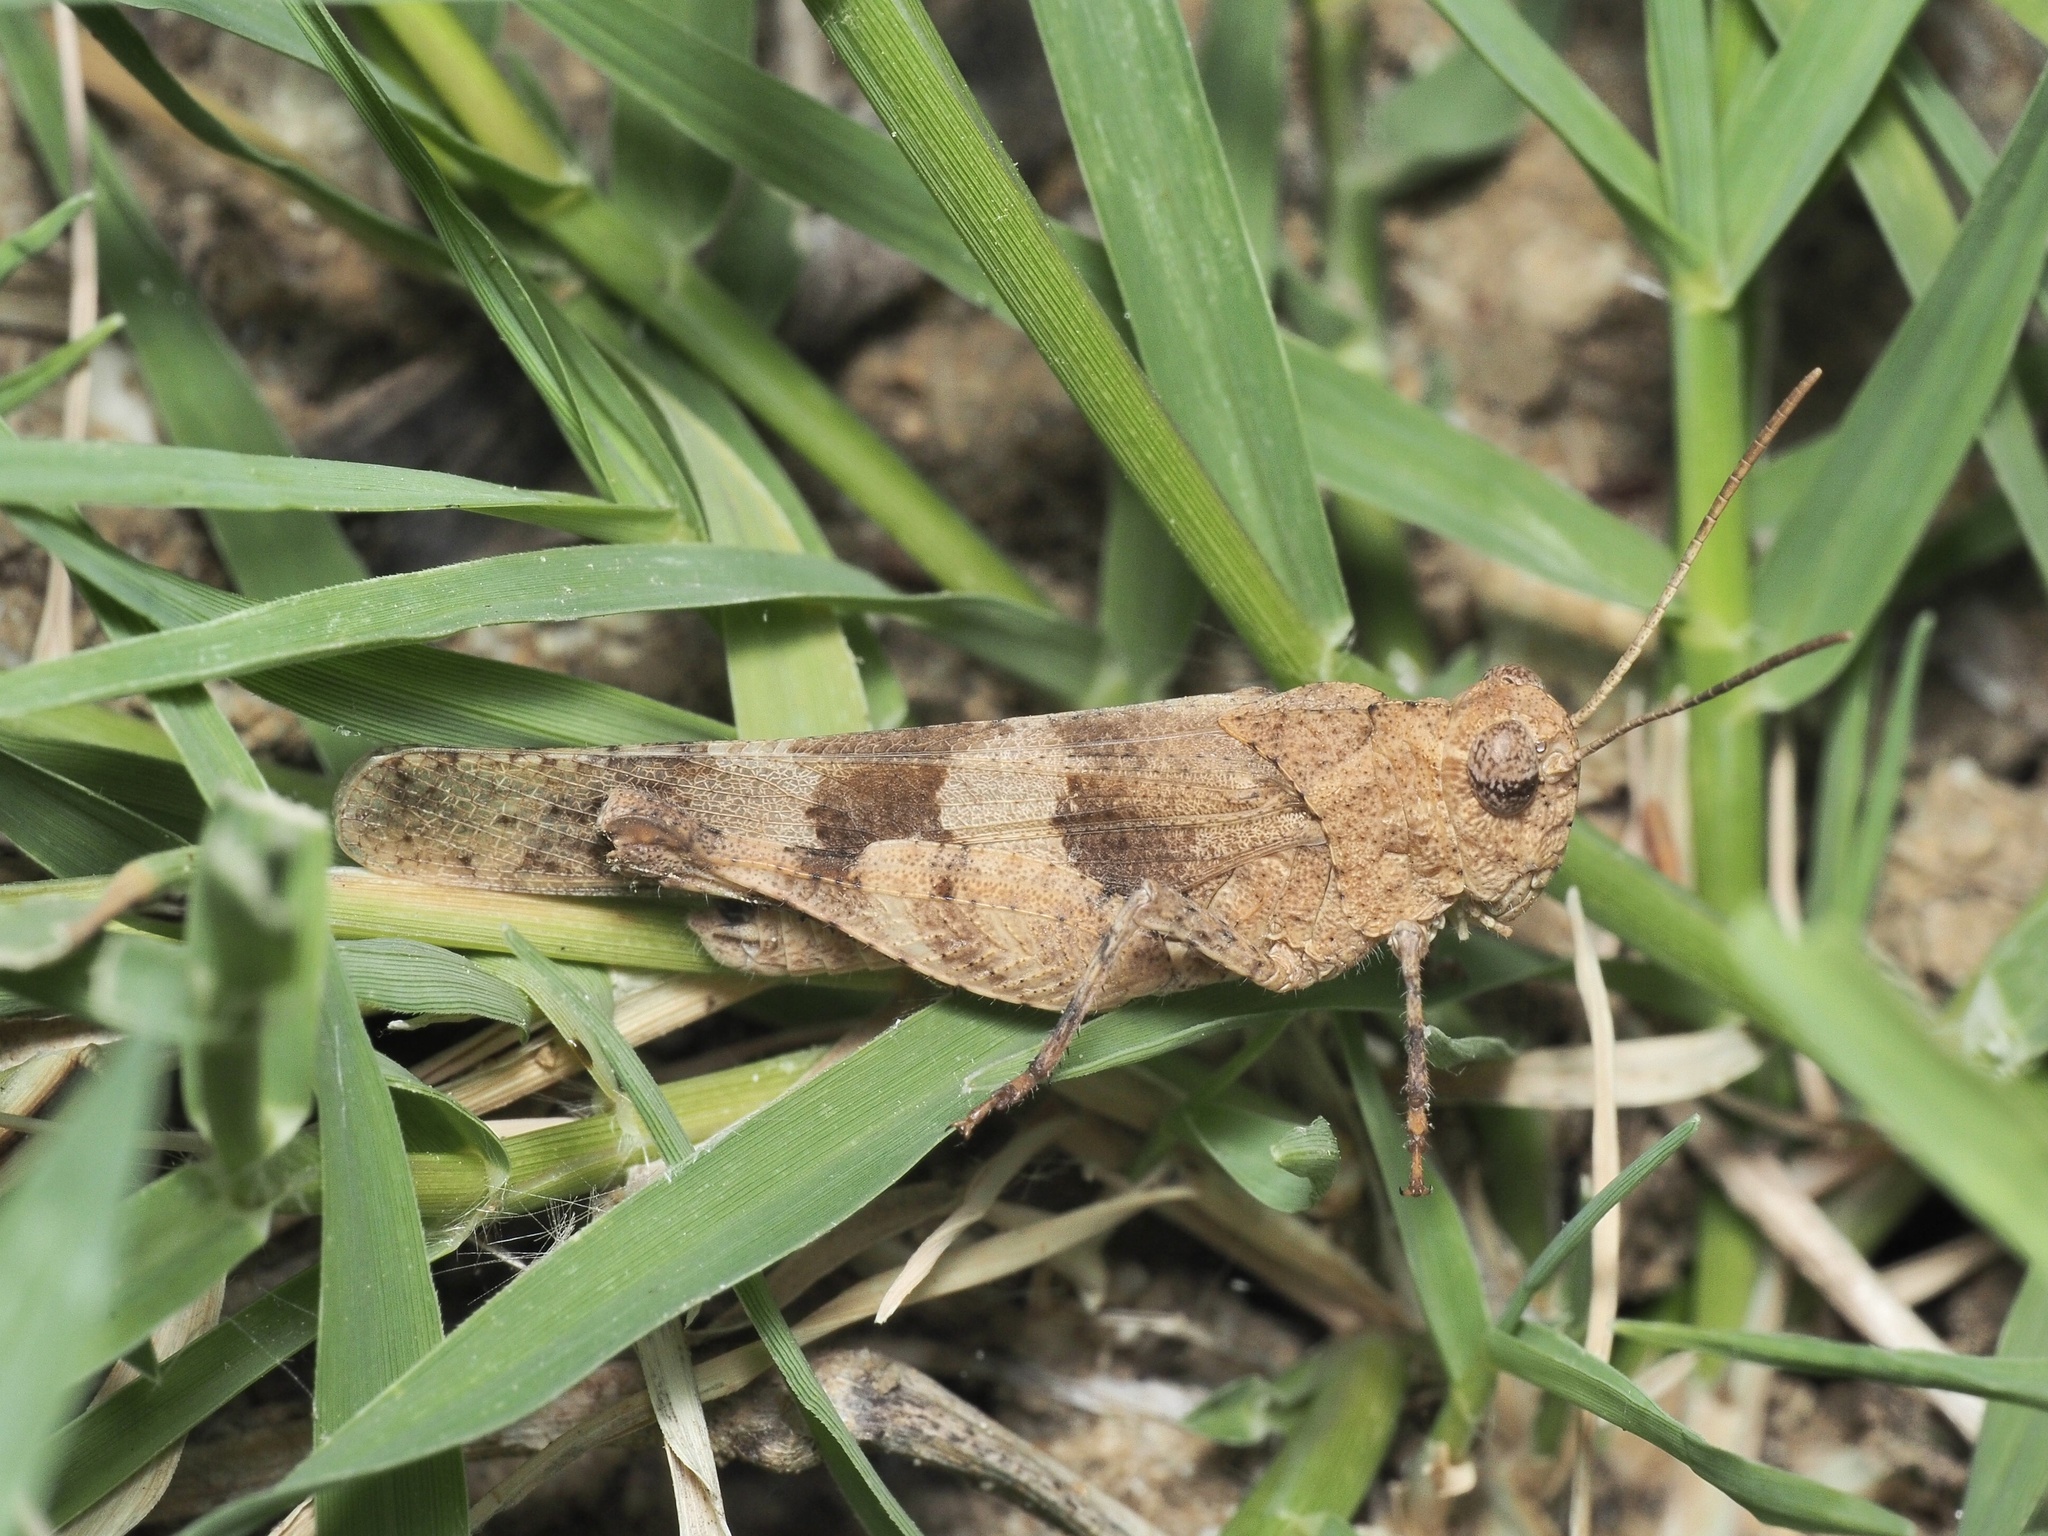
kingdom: Animalia
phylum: Arthropoda
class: Insecta
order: Orthoptera
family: Acrididae
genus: Oedipoda
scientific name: Oedipoda caerulescens
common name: Blue-winged grasshopper
